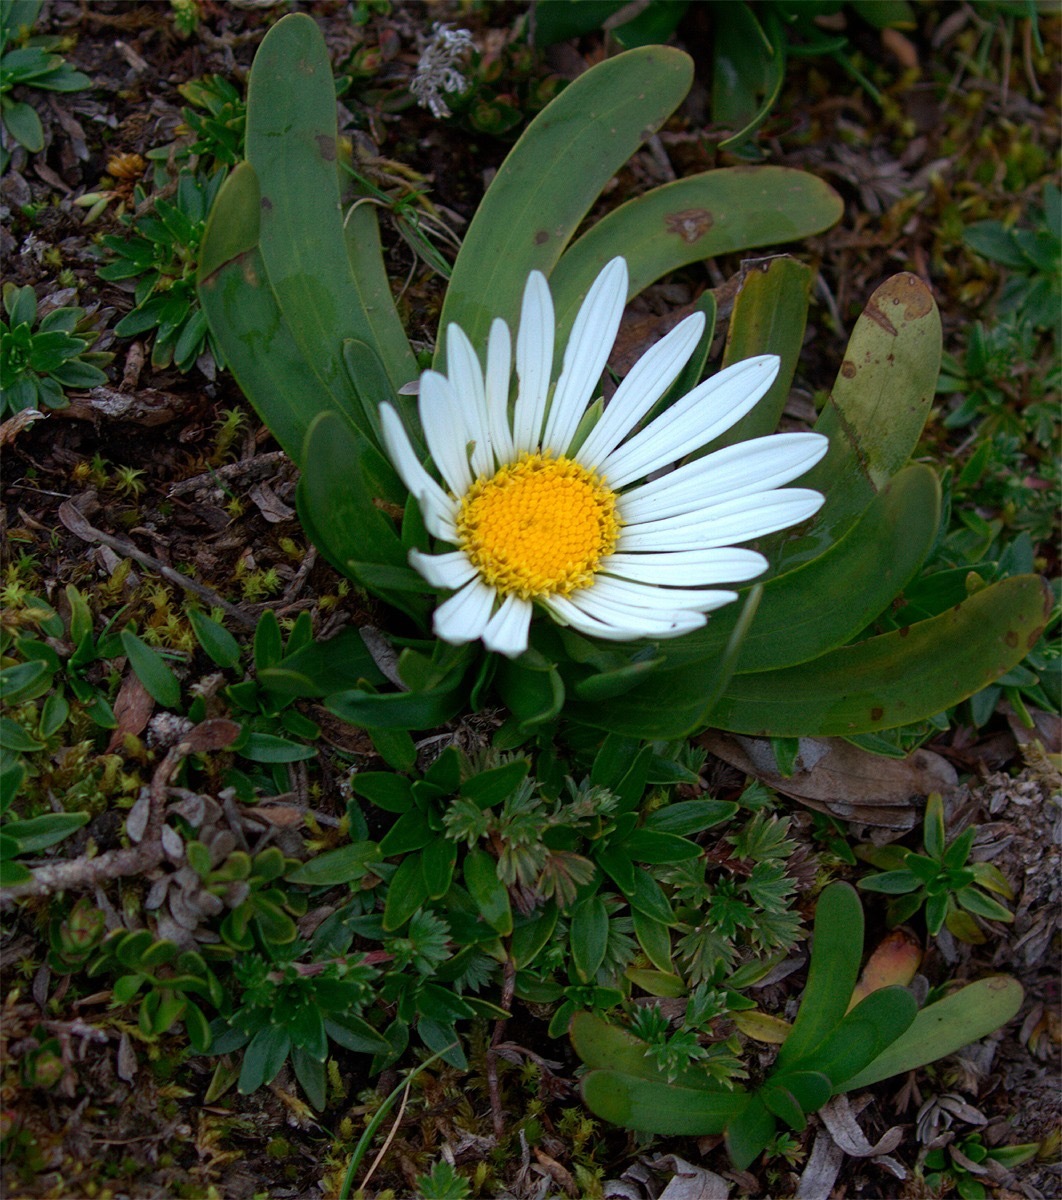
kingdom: Plantae
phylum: Tracheophyta
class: Magnoliopsida
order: Asterales
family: Asteraceae
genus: Rockhausenia
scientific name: Rockhausenia nubigena
